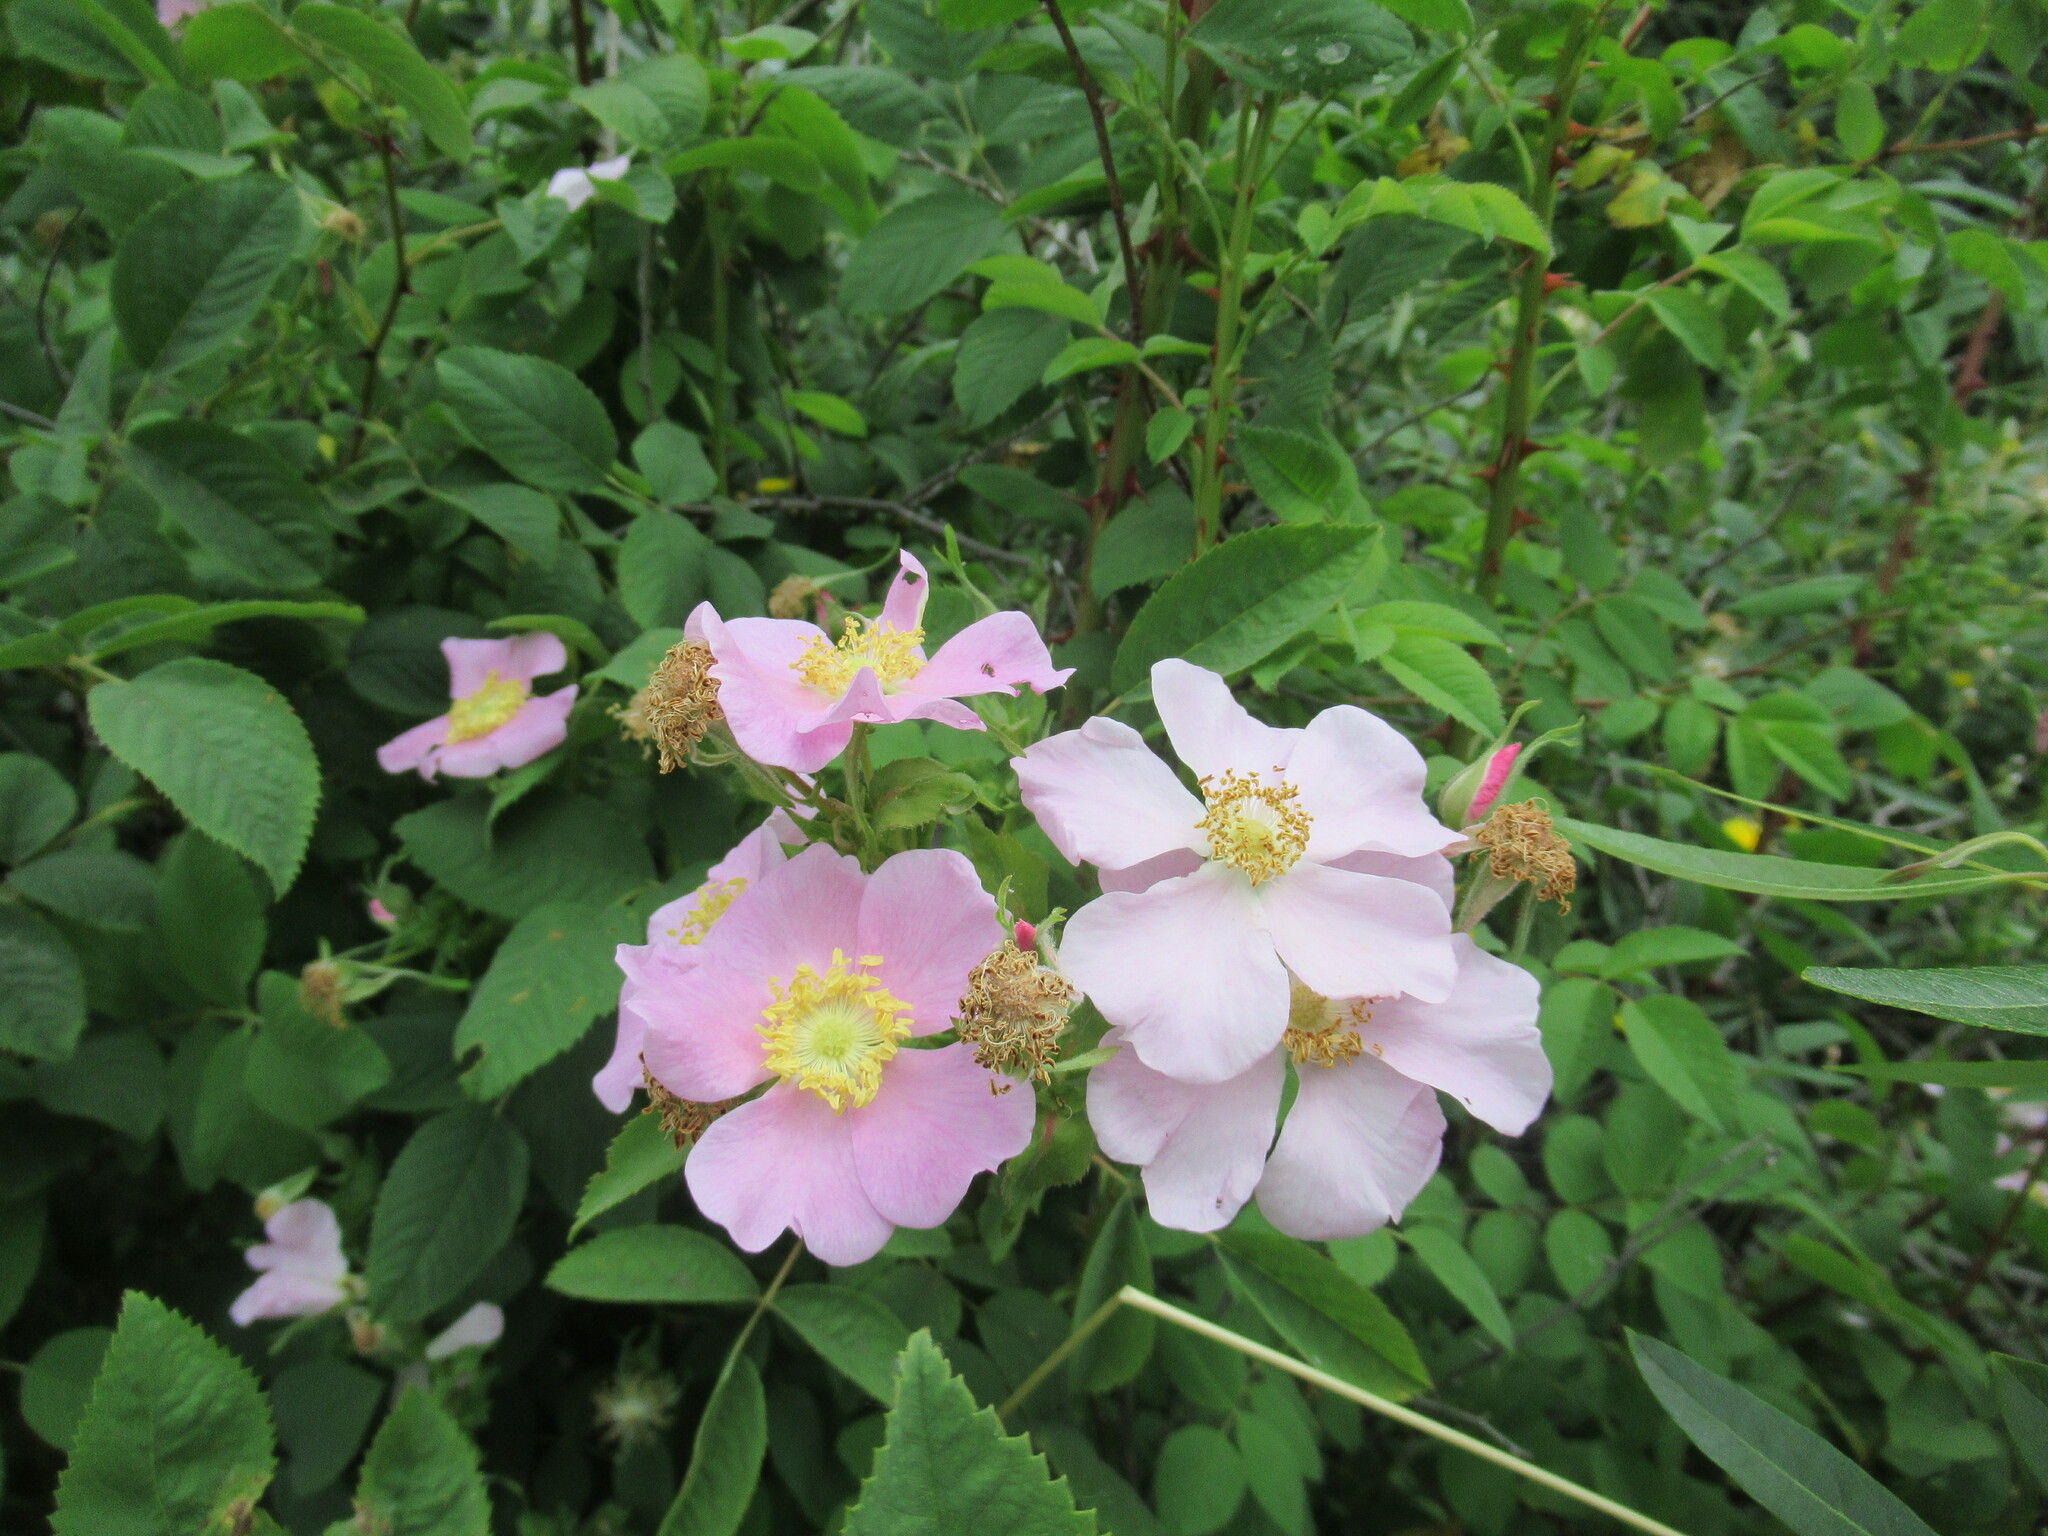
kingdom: Plantae
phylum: Tracheophyta
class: Magnoliopsida
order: Rosales
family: Rosaceae
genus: Rosa
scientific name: Rosa californica
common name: California rose
